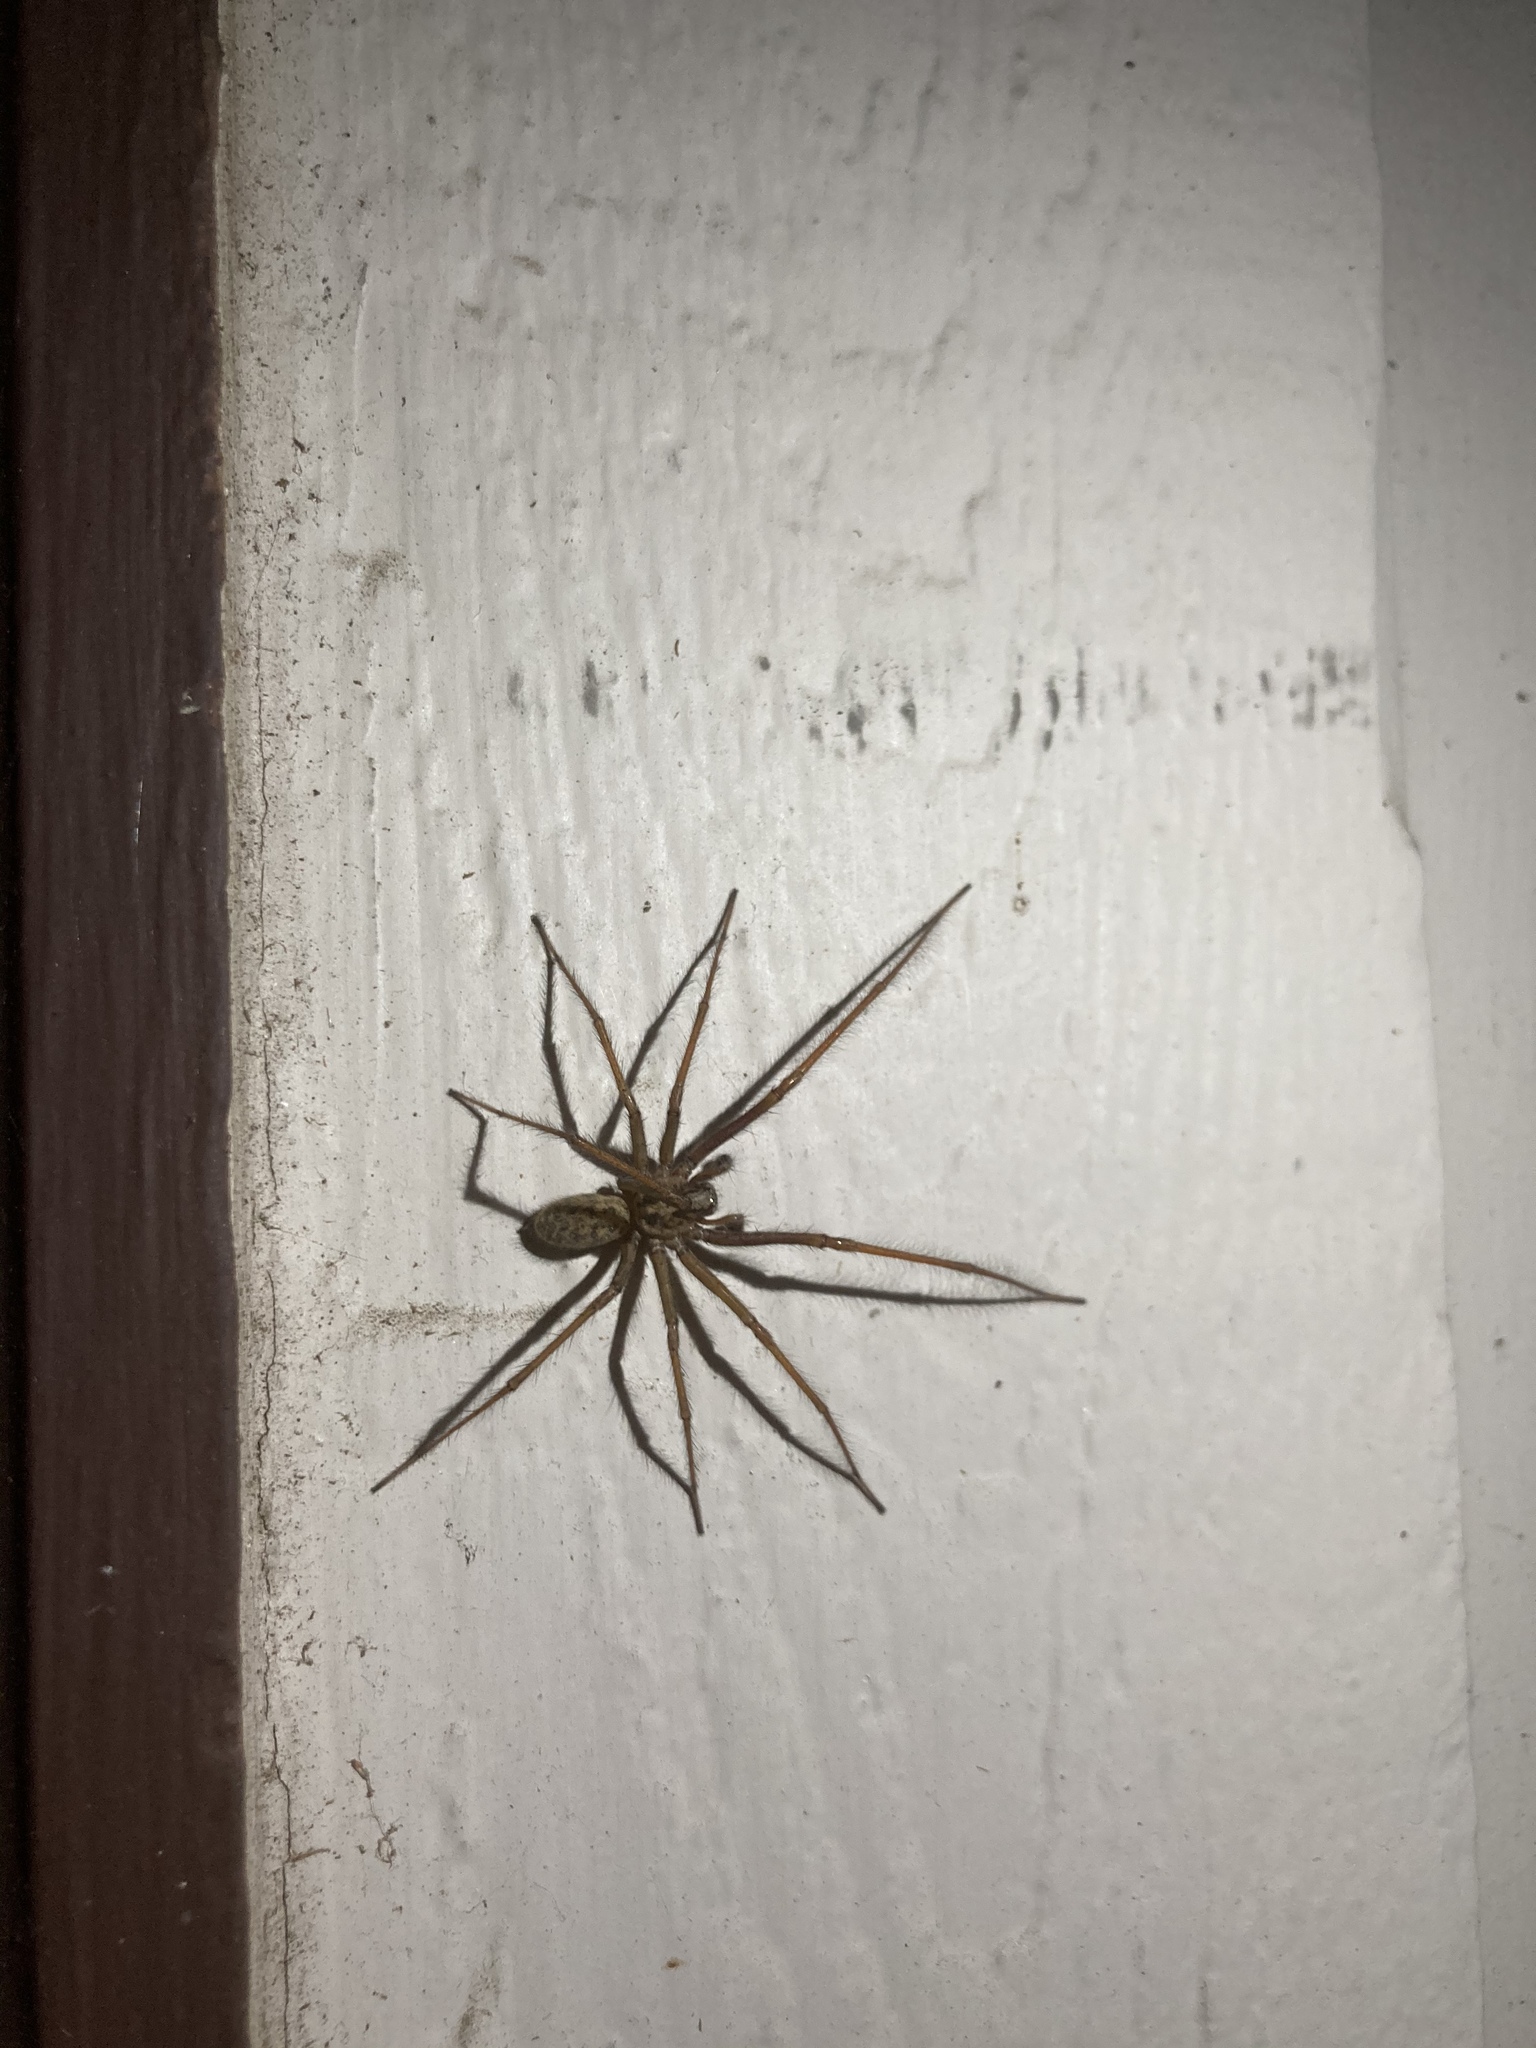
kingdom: Animalia
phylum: Arthropoda
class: Arachnida
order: Araneae
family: Agelenidae
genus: Eratigena
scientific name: Eratigena duellica
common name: Giant house spider
